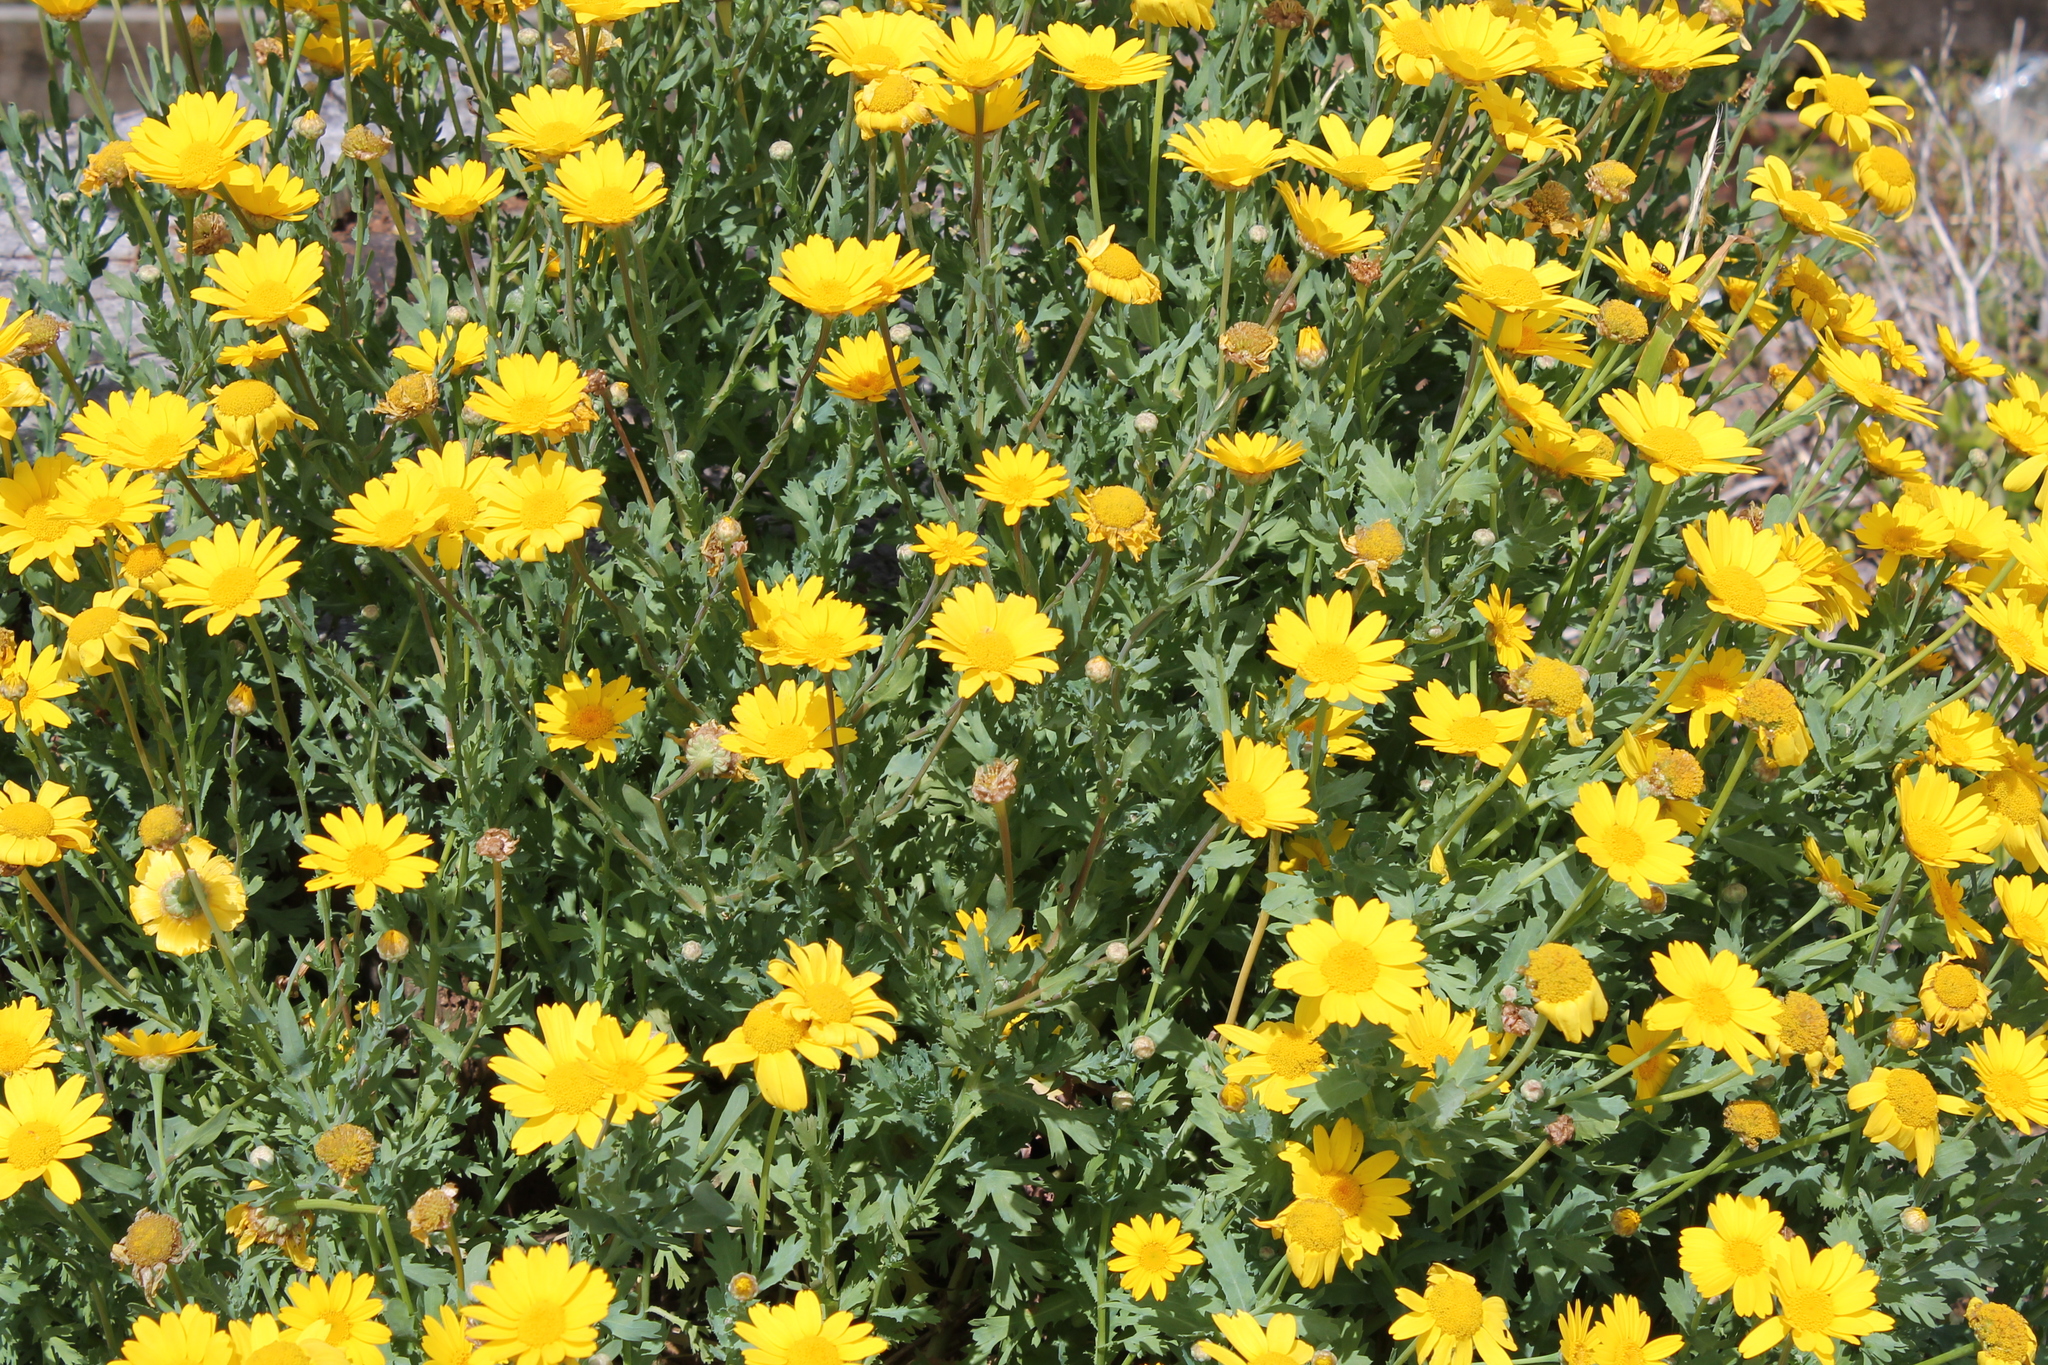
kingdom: Plantae
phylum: Tracheophyta
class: Magnoliopsida
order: Asterales
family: Asteraceae
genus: Glebionis
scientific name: Glebionis segetum
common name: Corndaisy
